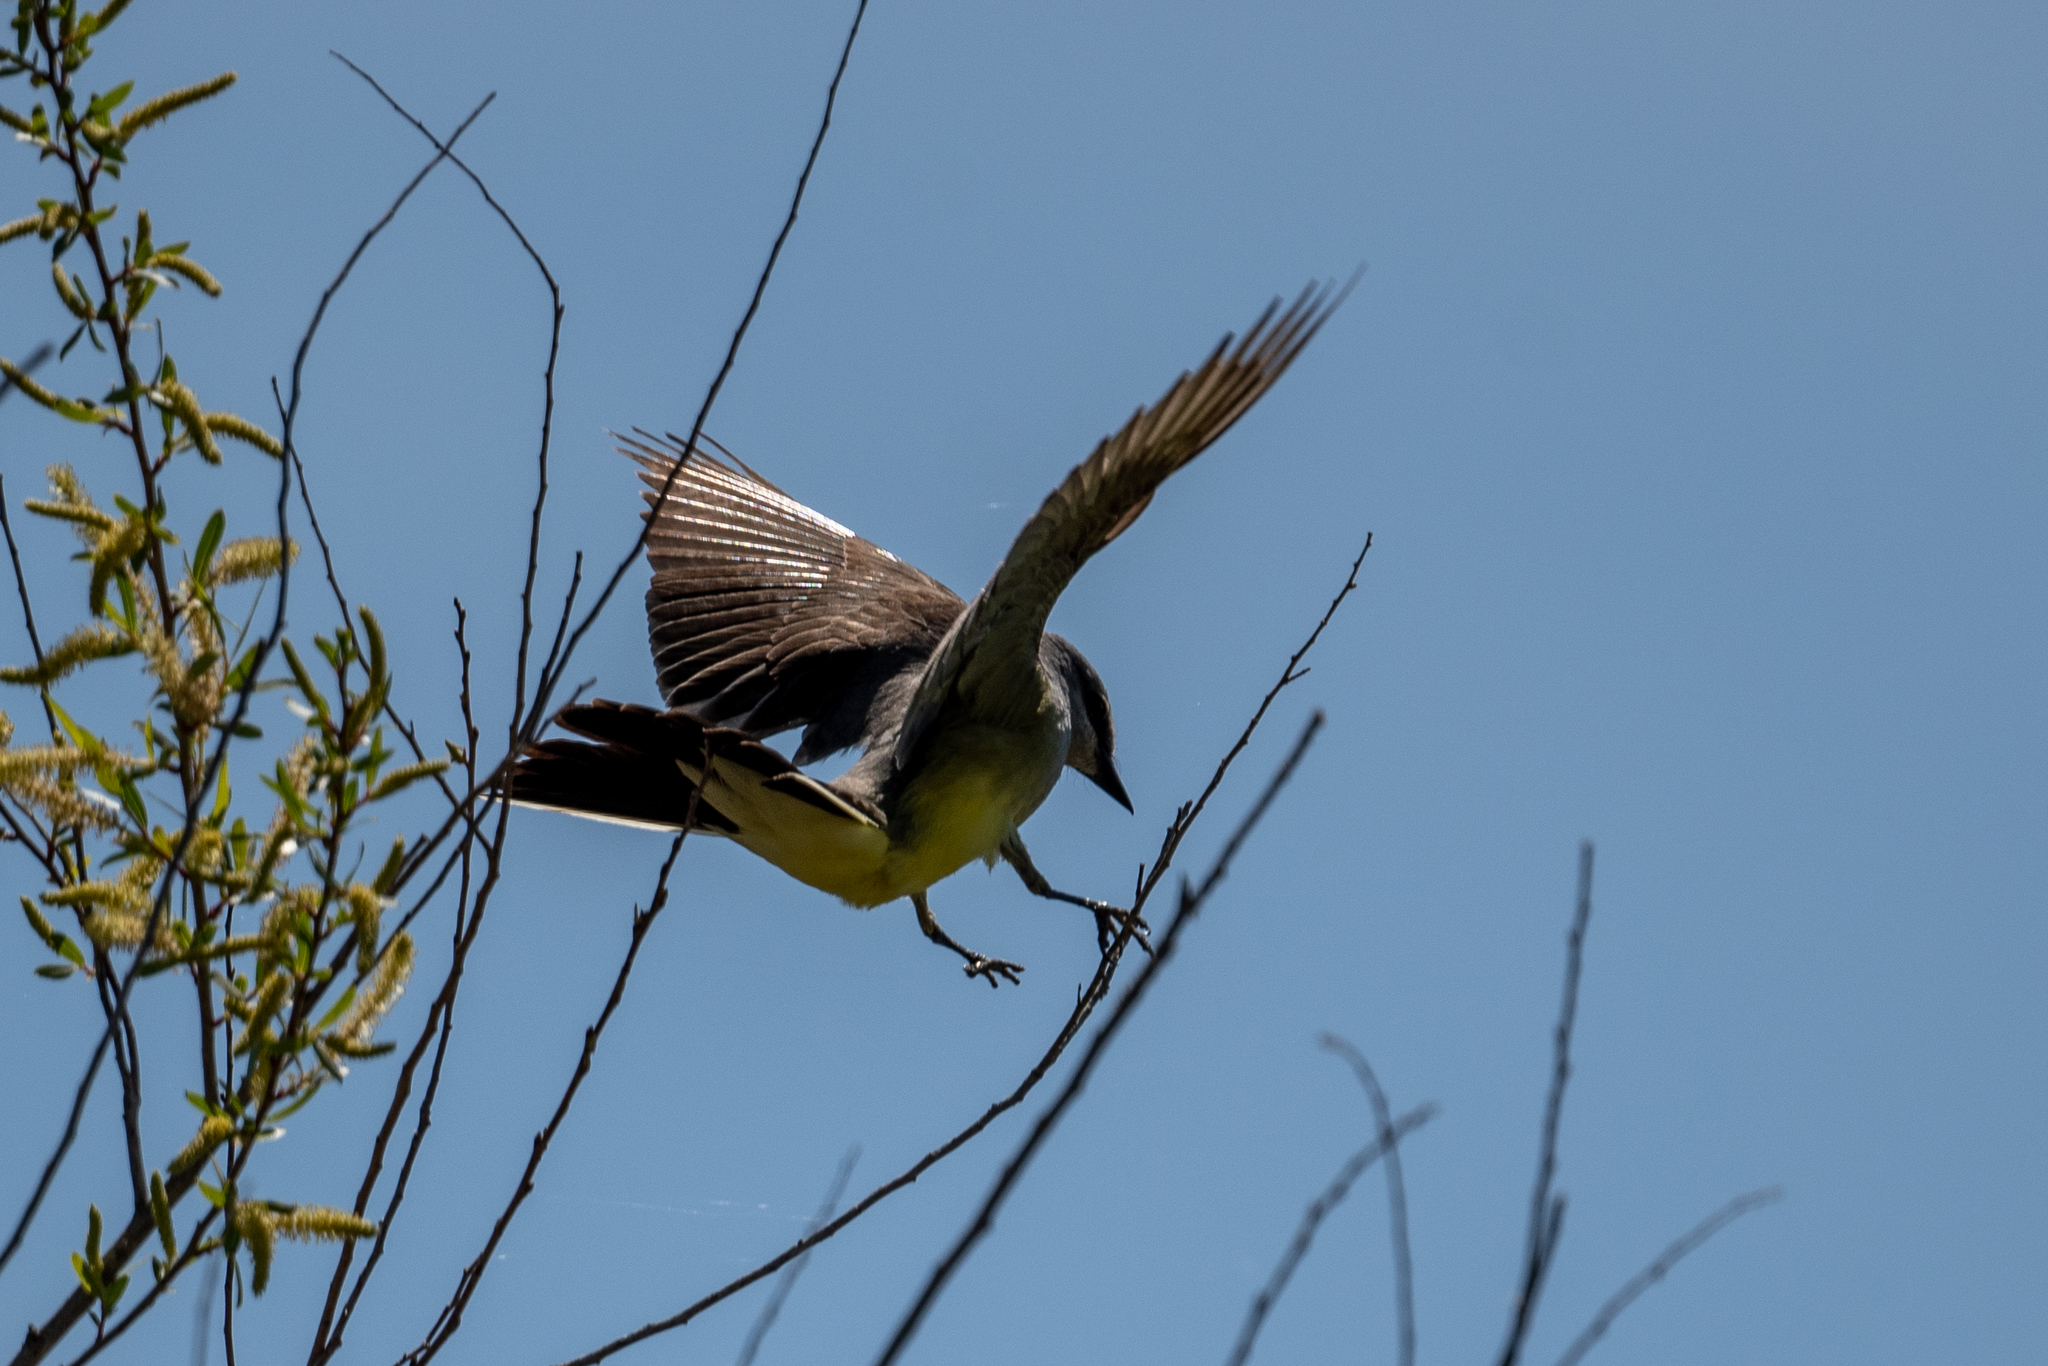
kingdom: Animalia
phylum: Chordata
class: Aves
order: Passeriformes
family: Tyrannidae
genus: Tyrannus
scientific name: Tyrannus verticalis
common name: Western kingbird
